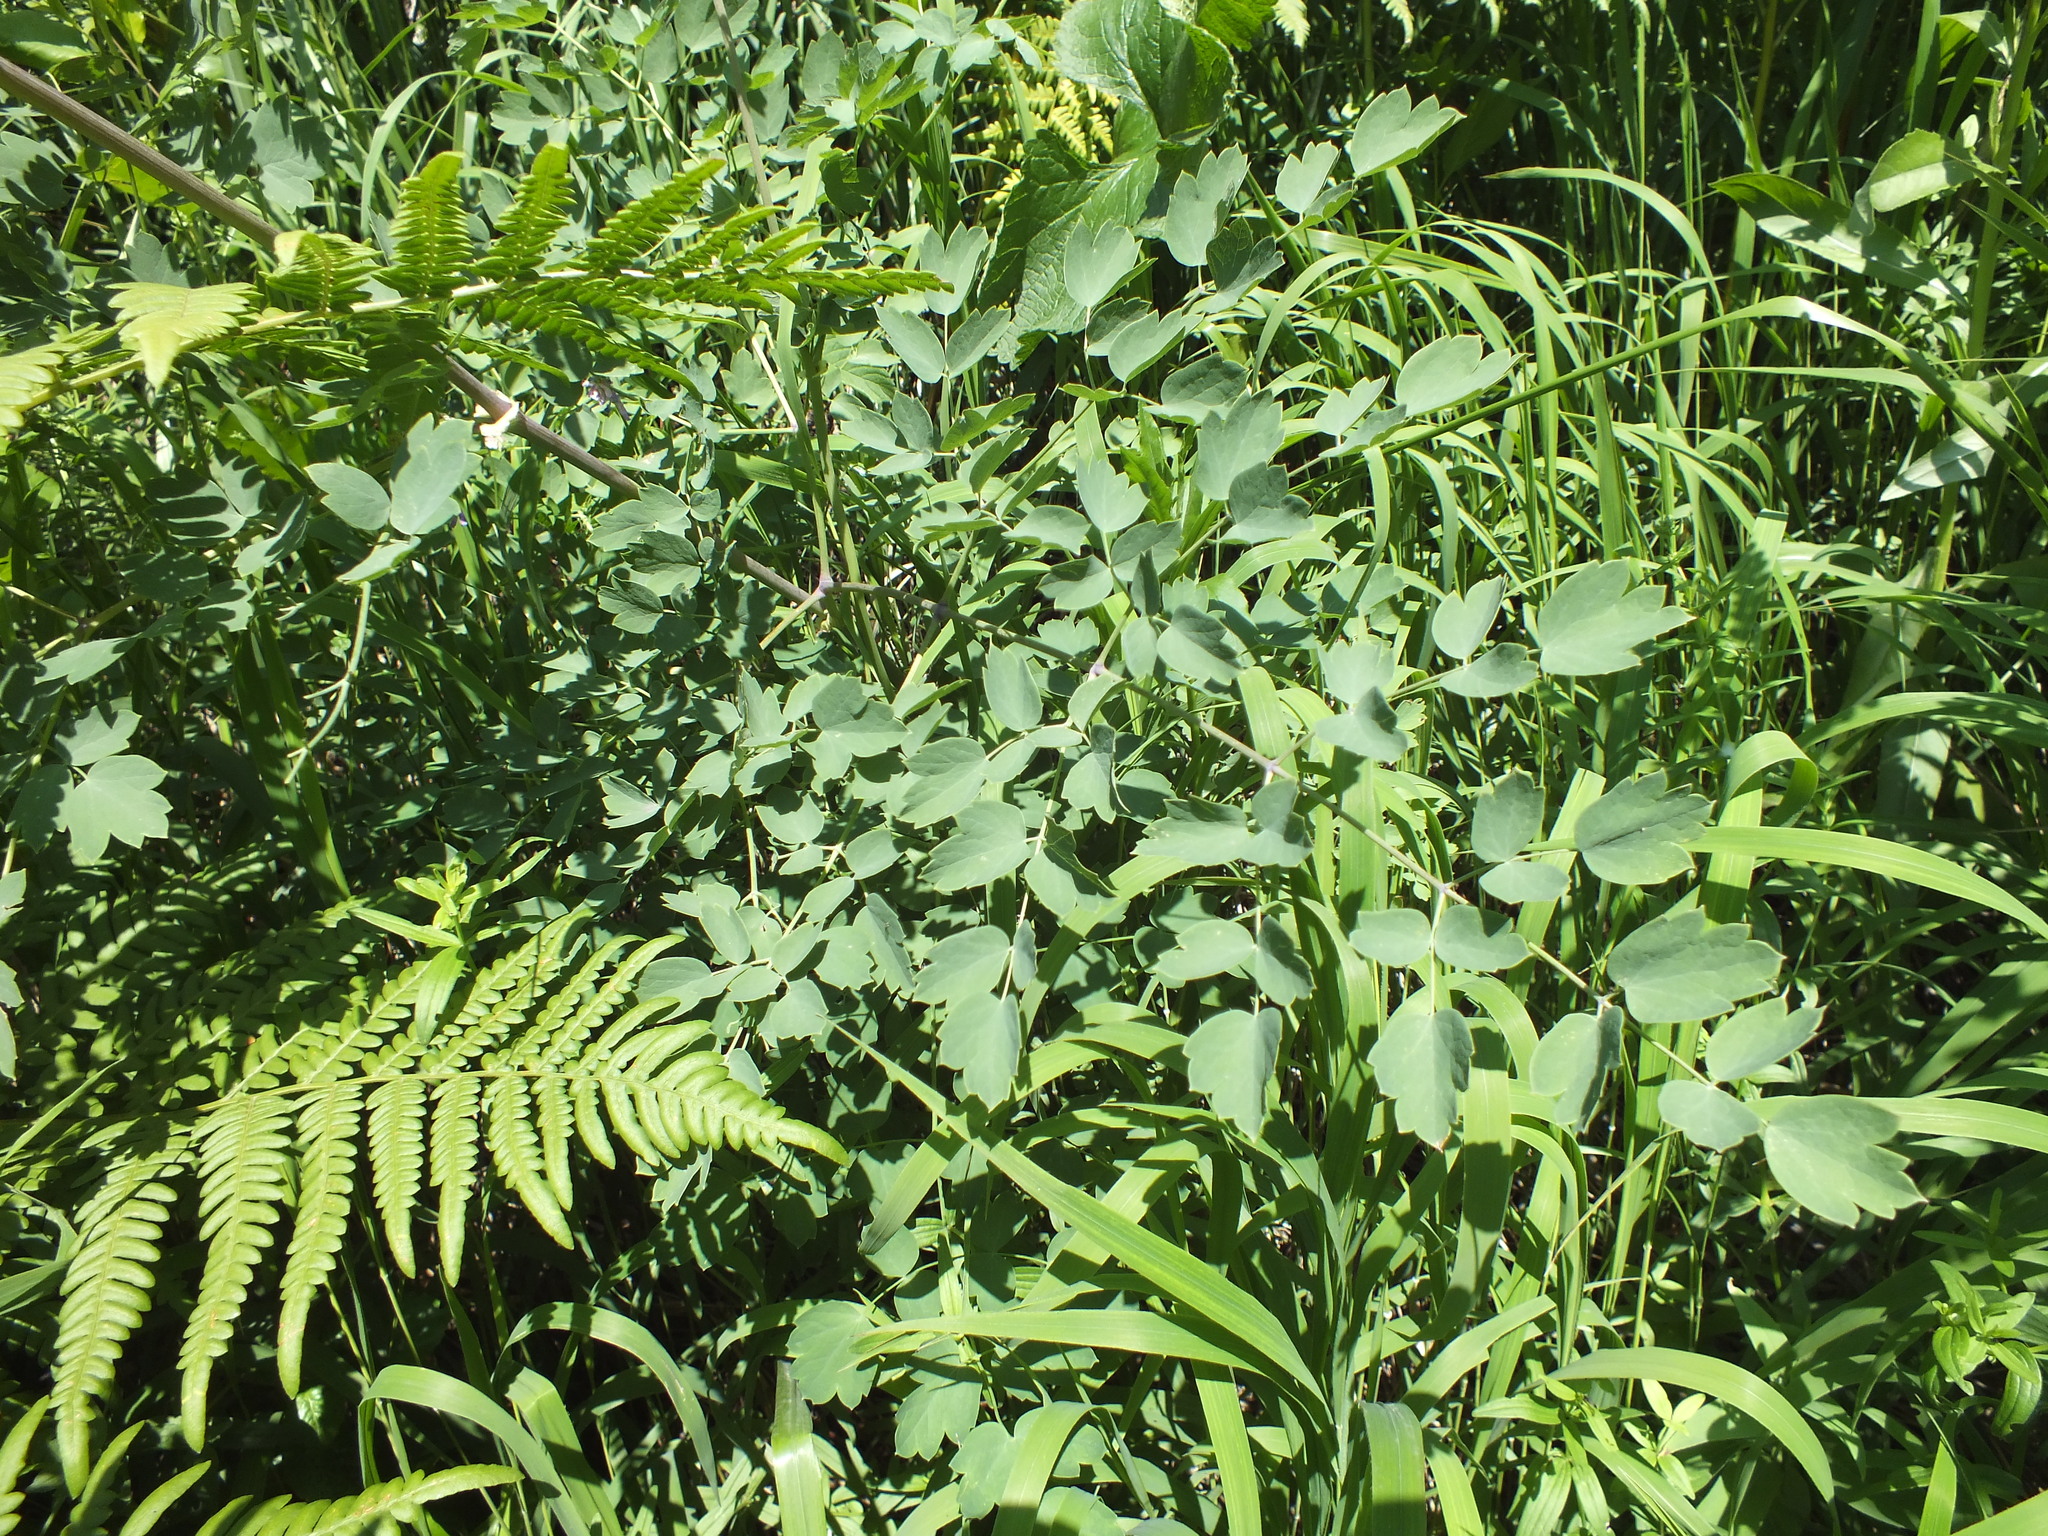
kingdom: Plantae
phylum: Tracheophyta
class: Magnoliopsida
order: Ranunculales
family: Ranunculaceae
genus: Thalictrum
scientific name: Thalictrum minus
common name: Lesser meadow-rue
